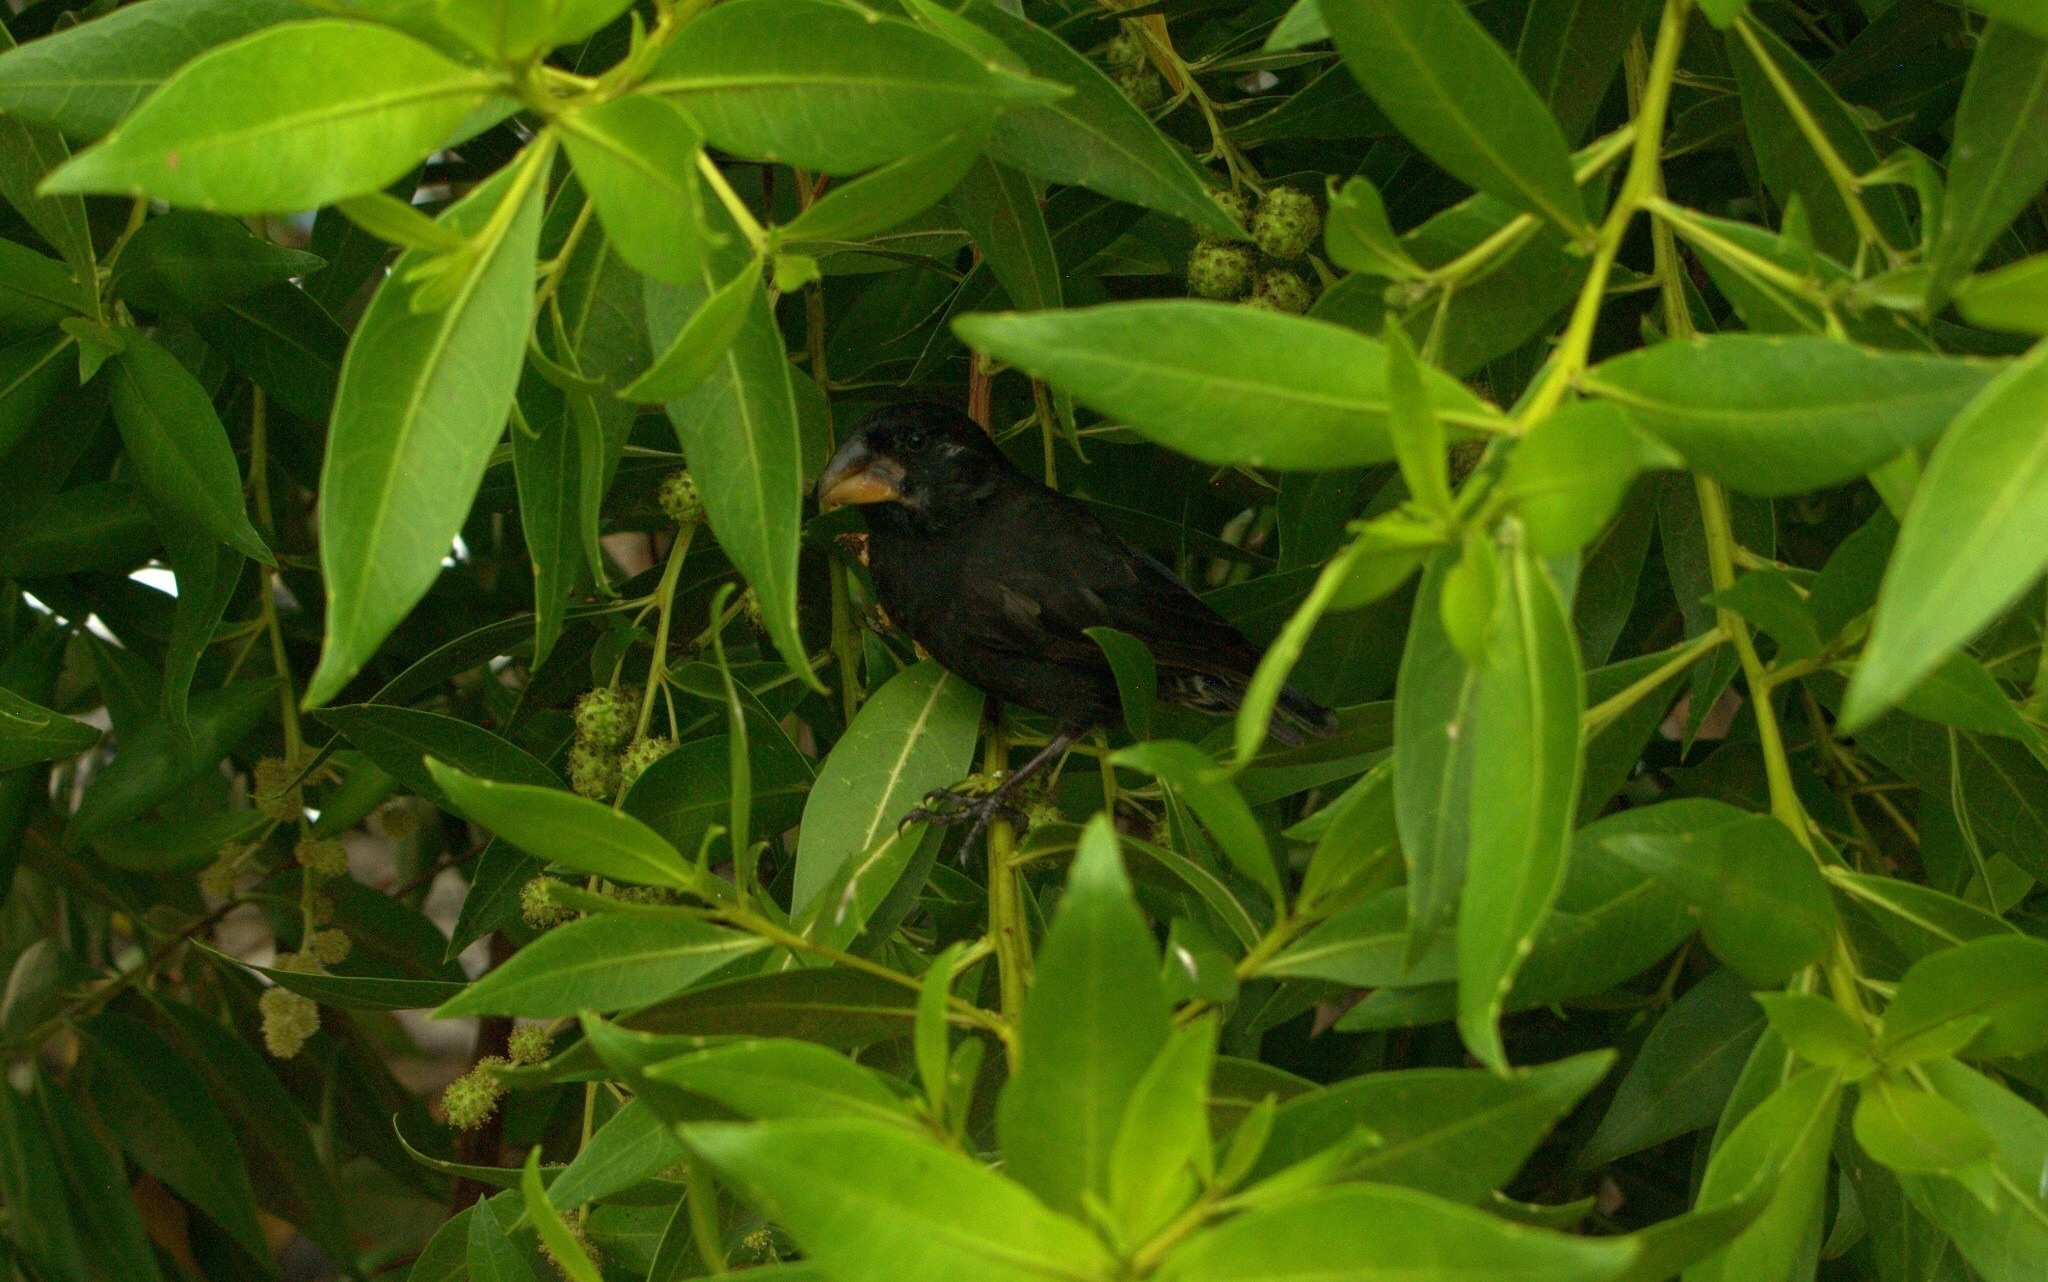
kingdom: Animalia
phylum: Chordata
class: Aves
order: Passeriformes
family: Thraupidae
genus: Geospiza
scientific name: Geospiza magnirostris
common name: Large ground-finch
